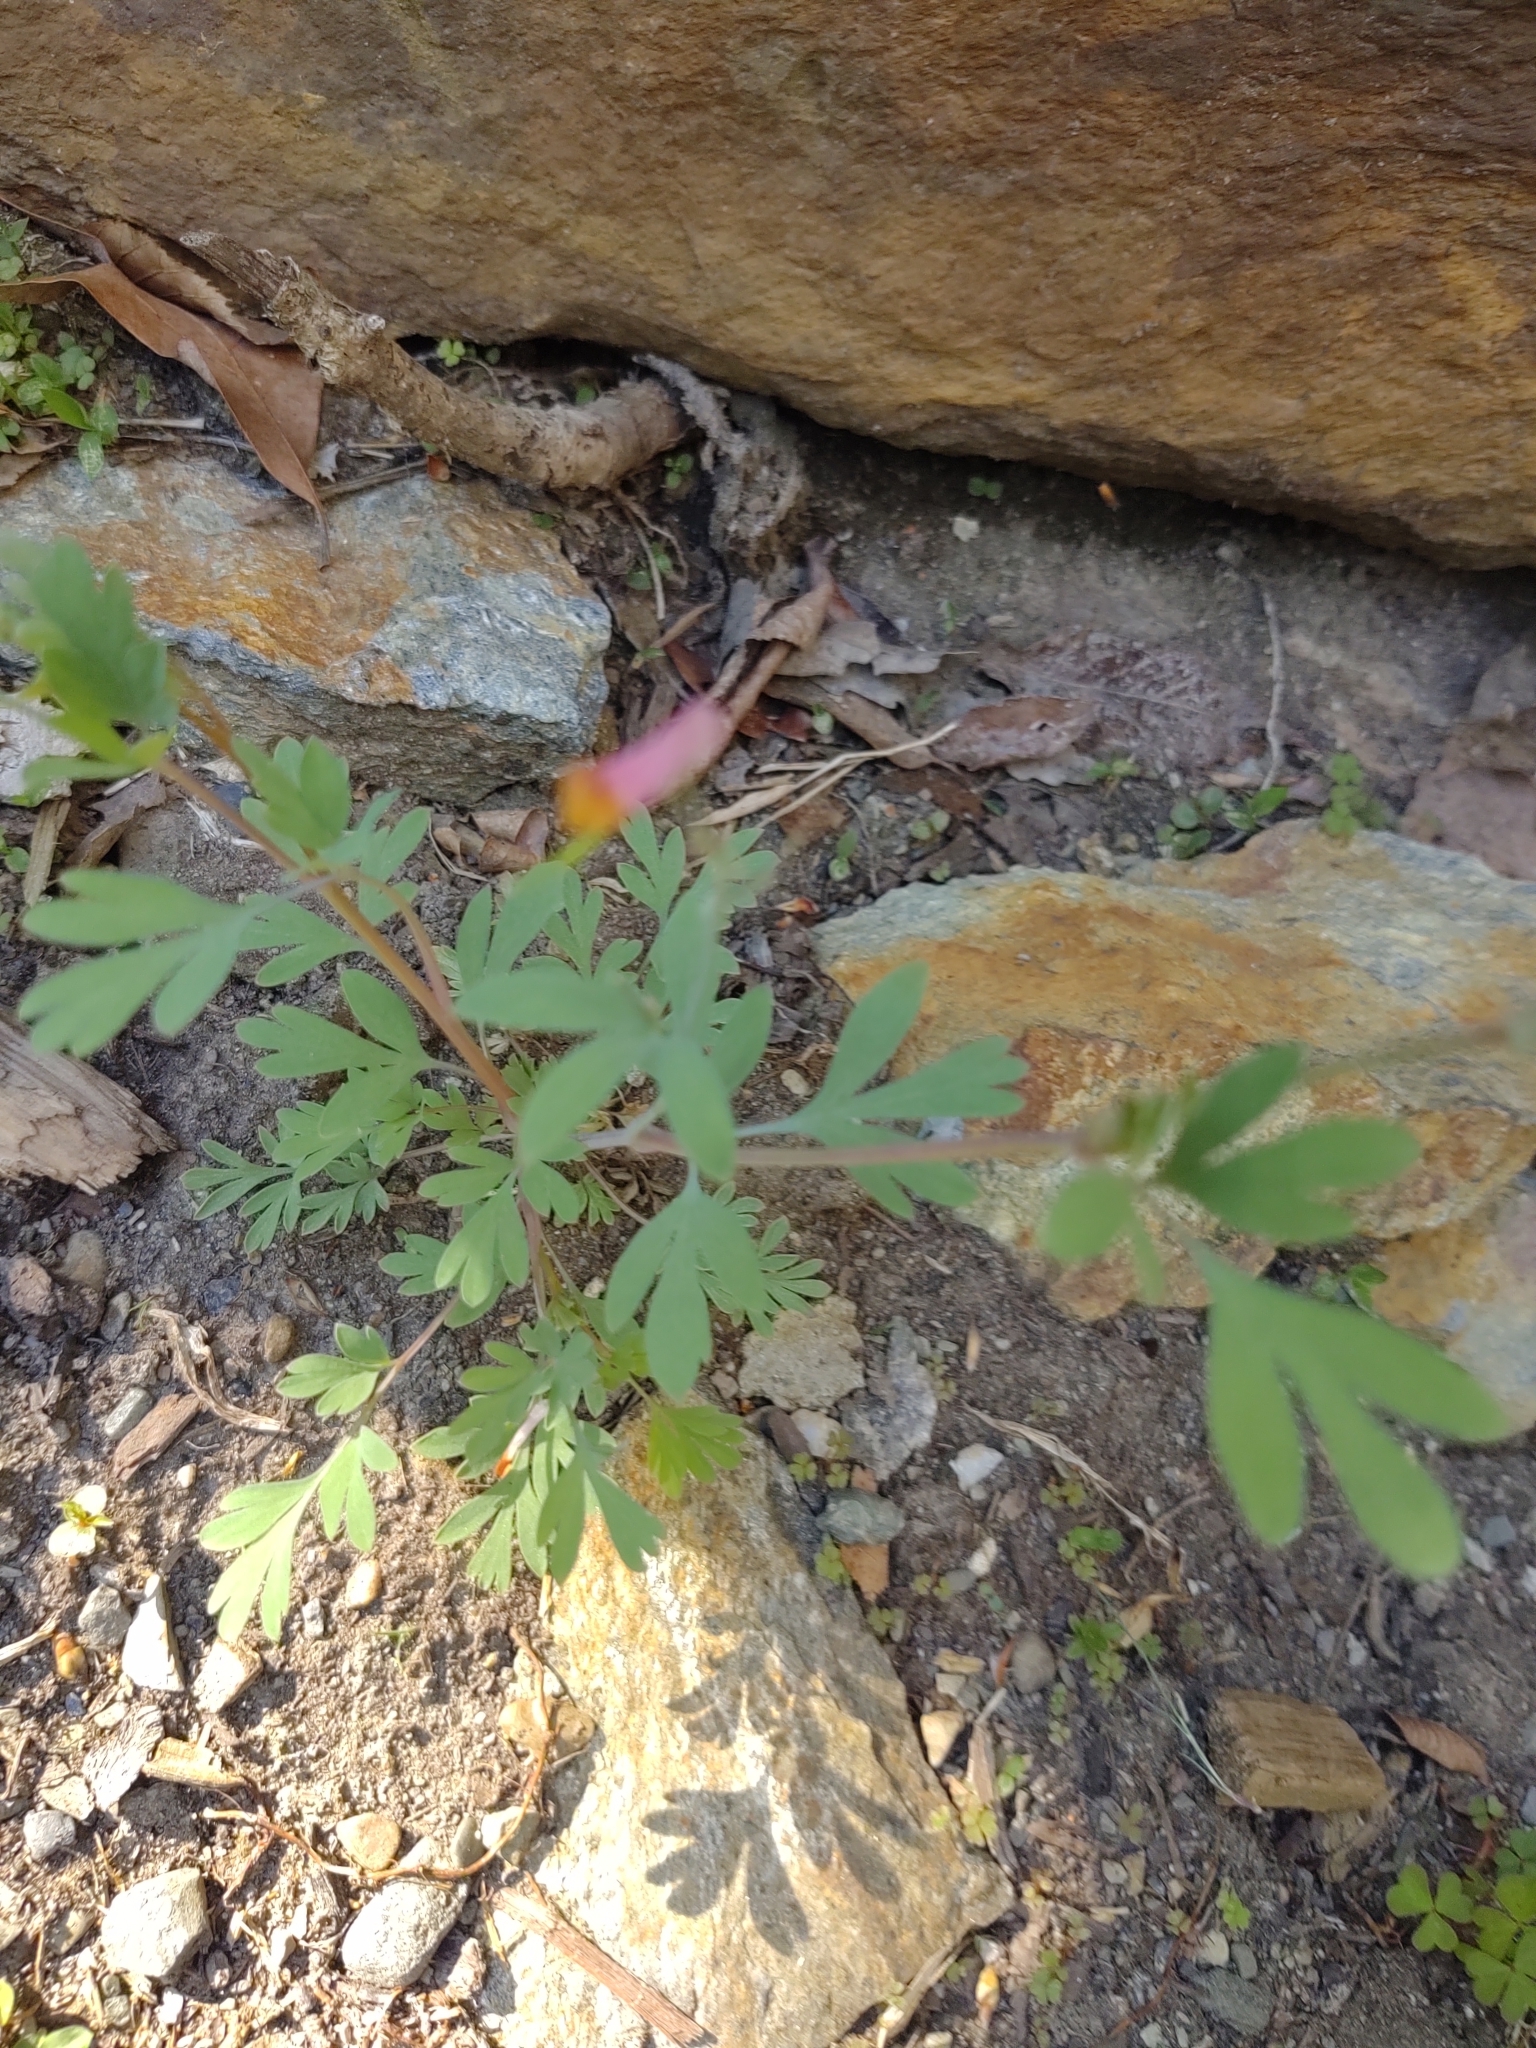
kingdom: Plantae
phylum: Tracheophyta
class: Magnoliopsida
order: Ranunculales
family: Papaveraceae
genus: Capnoides
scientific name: Capnoides sempervirens
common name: Rock harlequin
